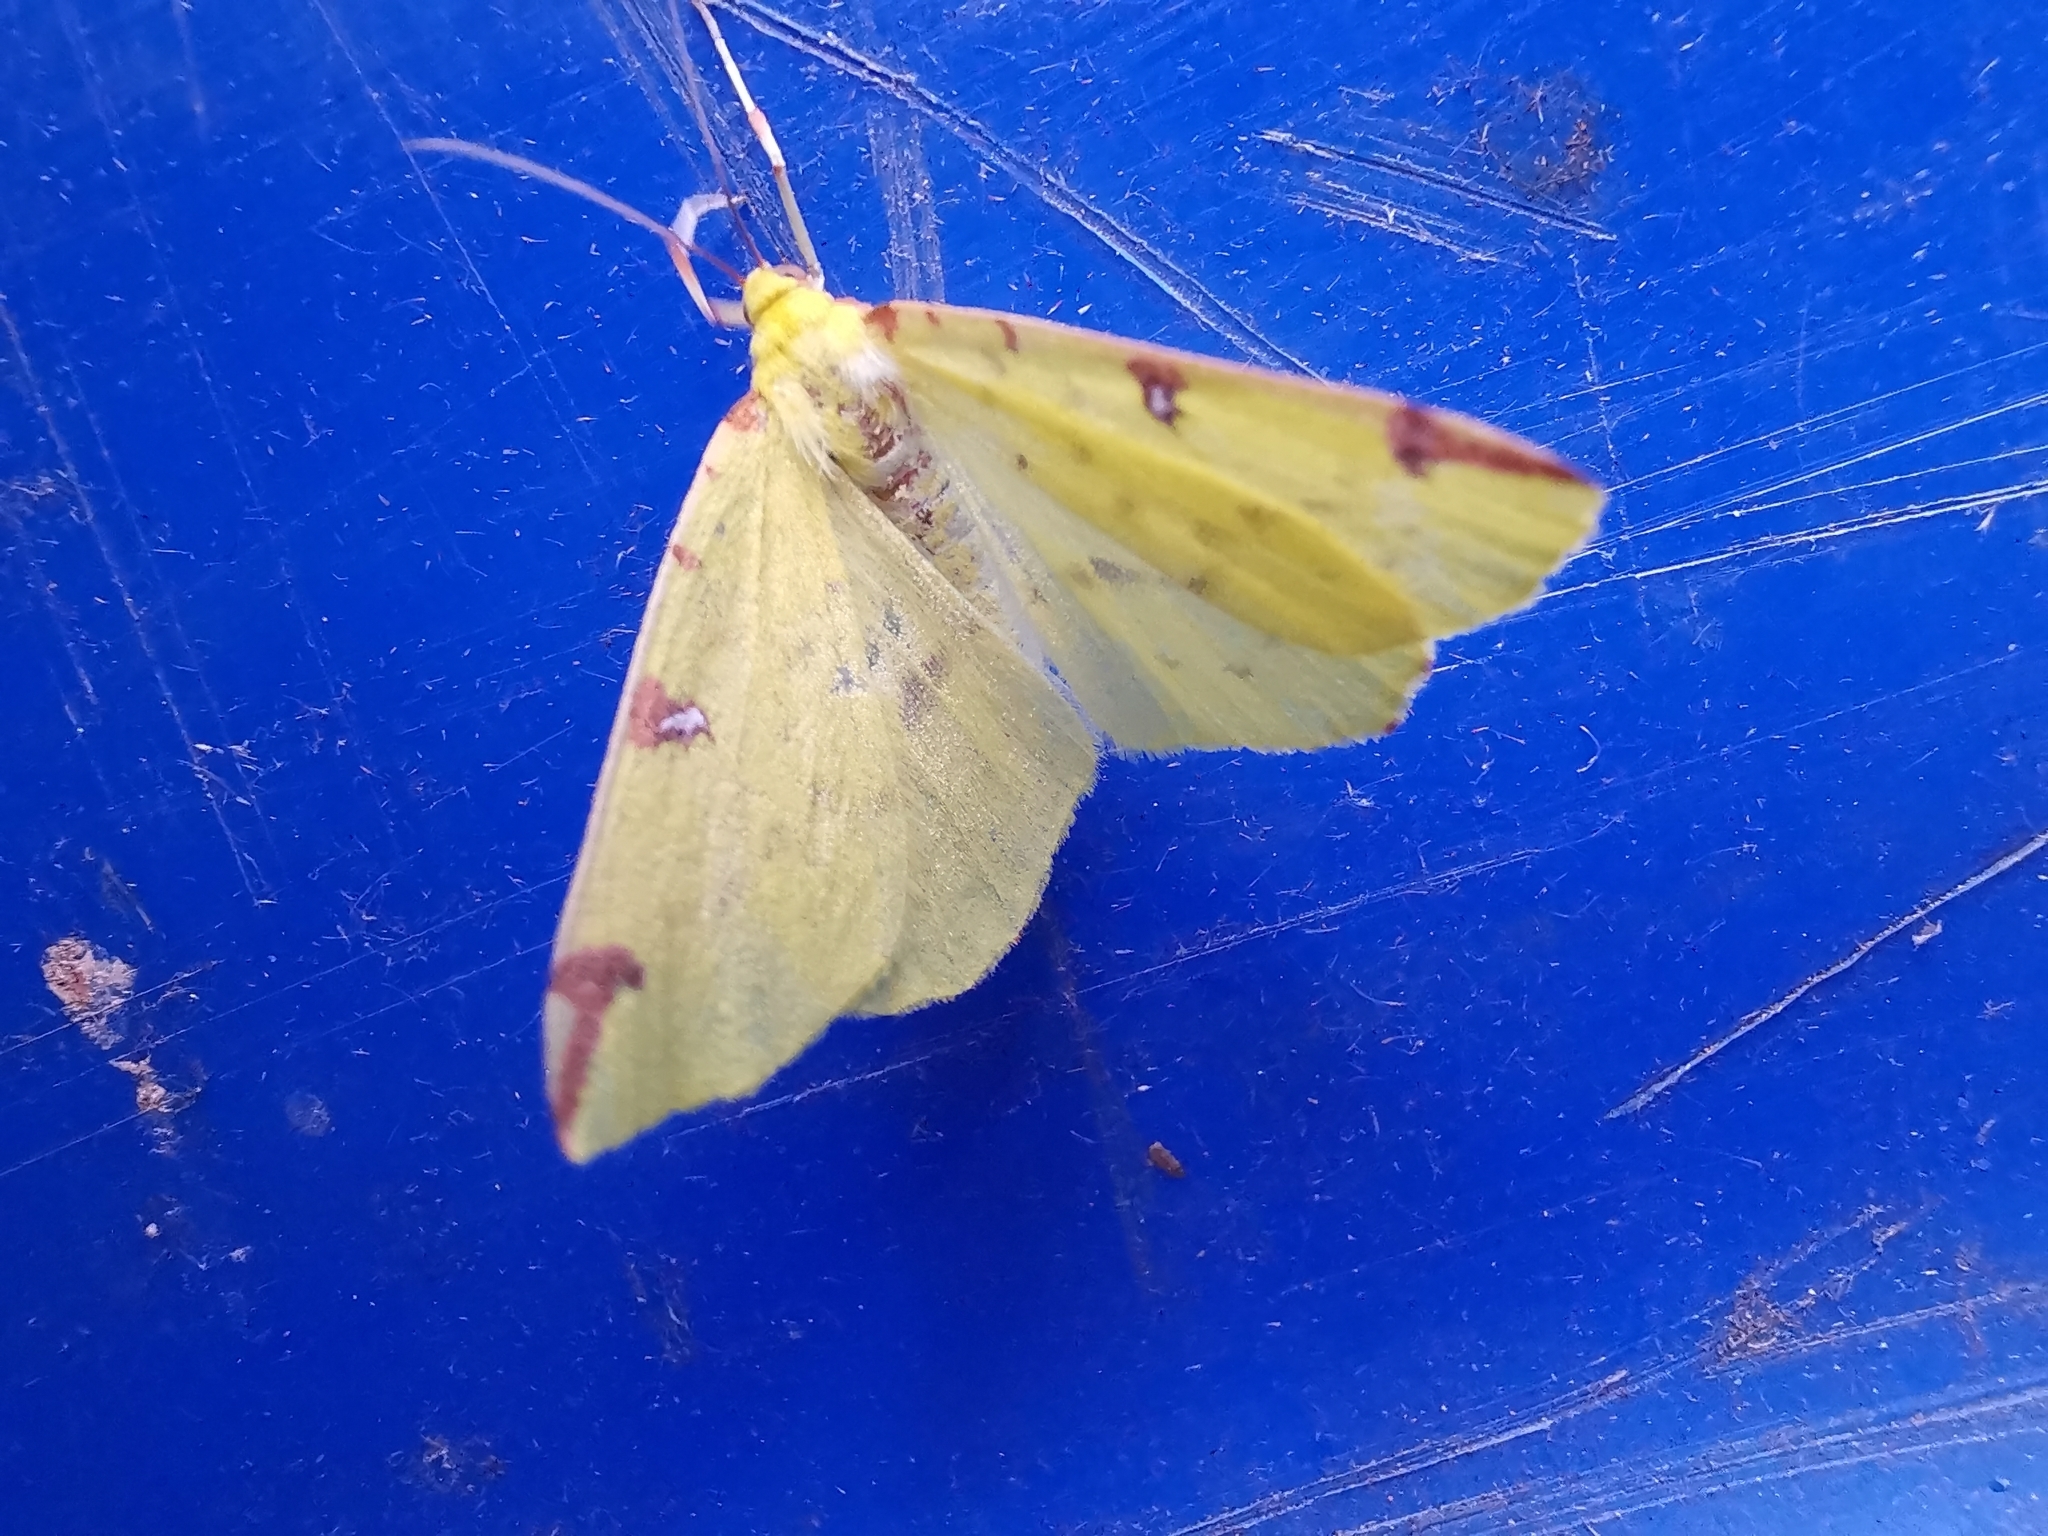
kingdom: Animalia
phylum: Arthropoda
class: Insecta
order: Lepidoptera
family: Geometridae
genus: Opisthograptis
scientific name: Opisthograptis luteolata
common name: Brimstone moth
